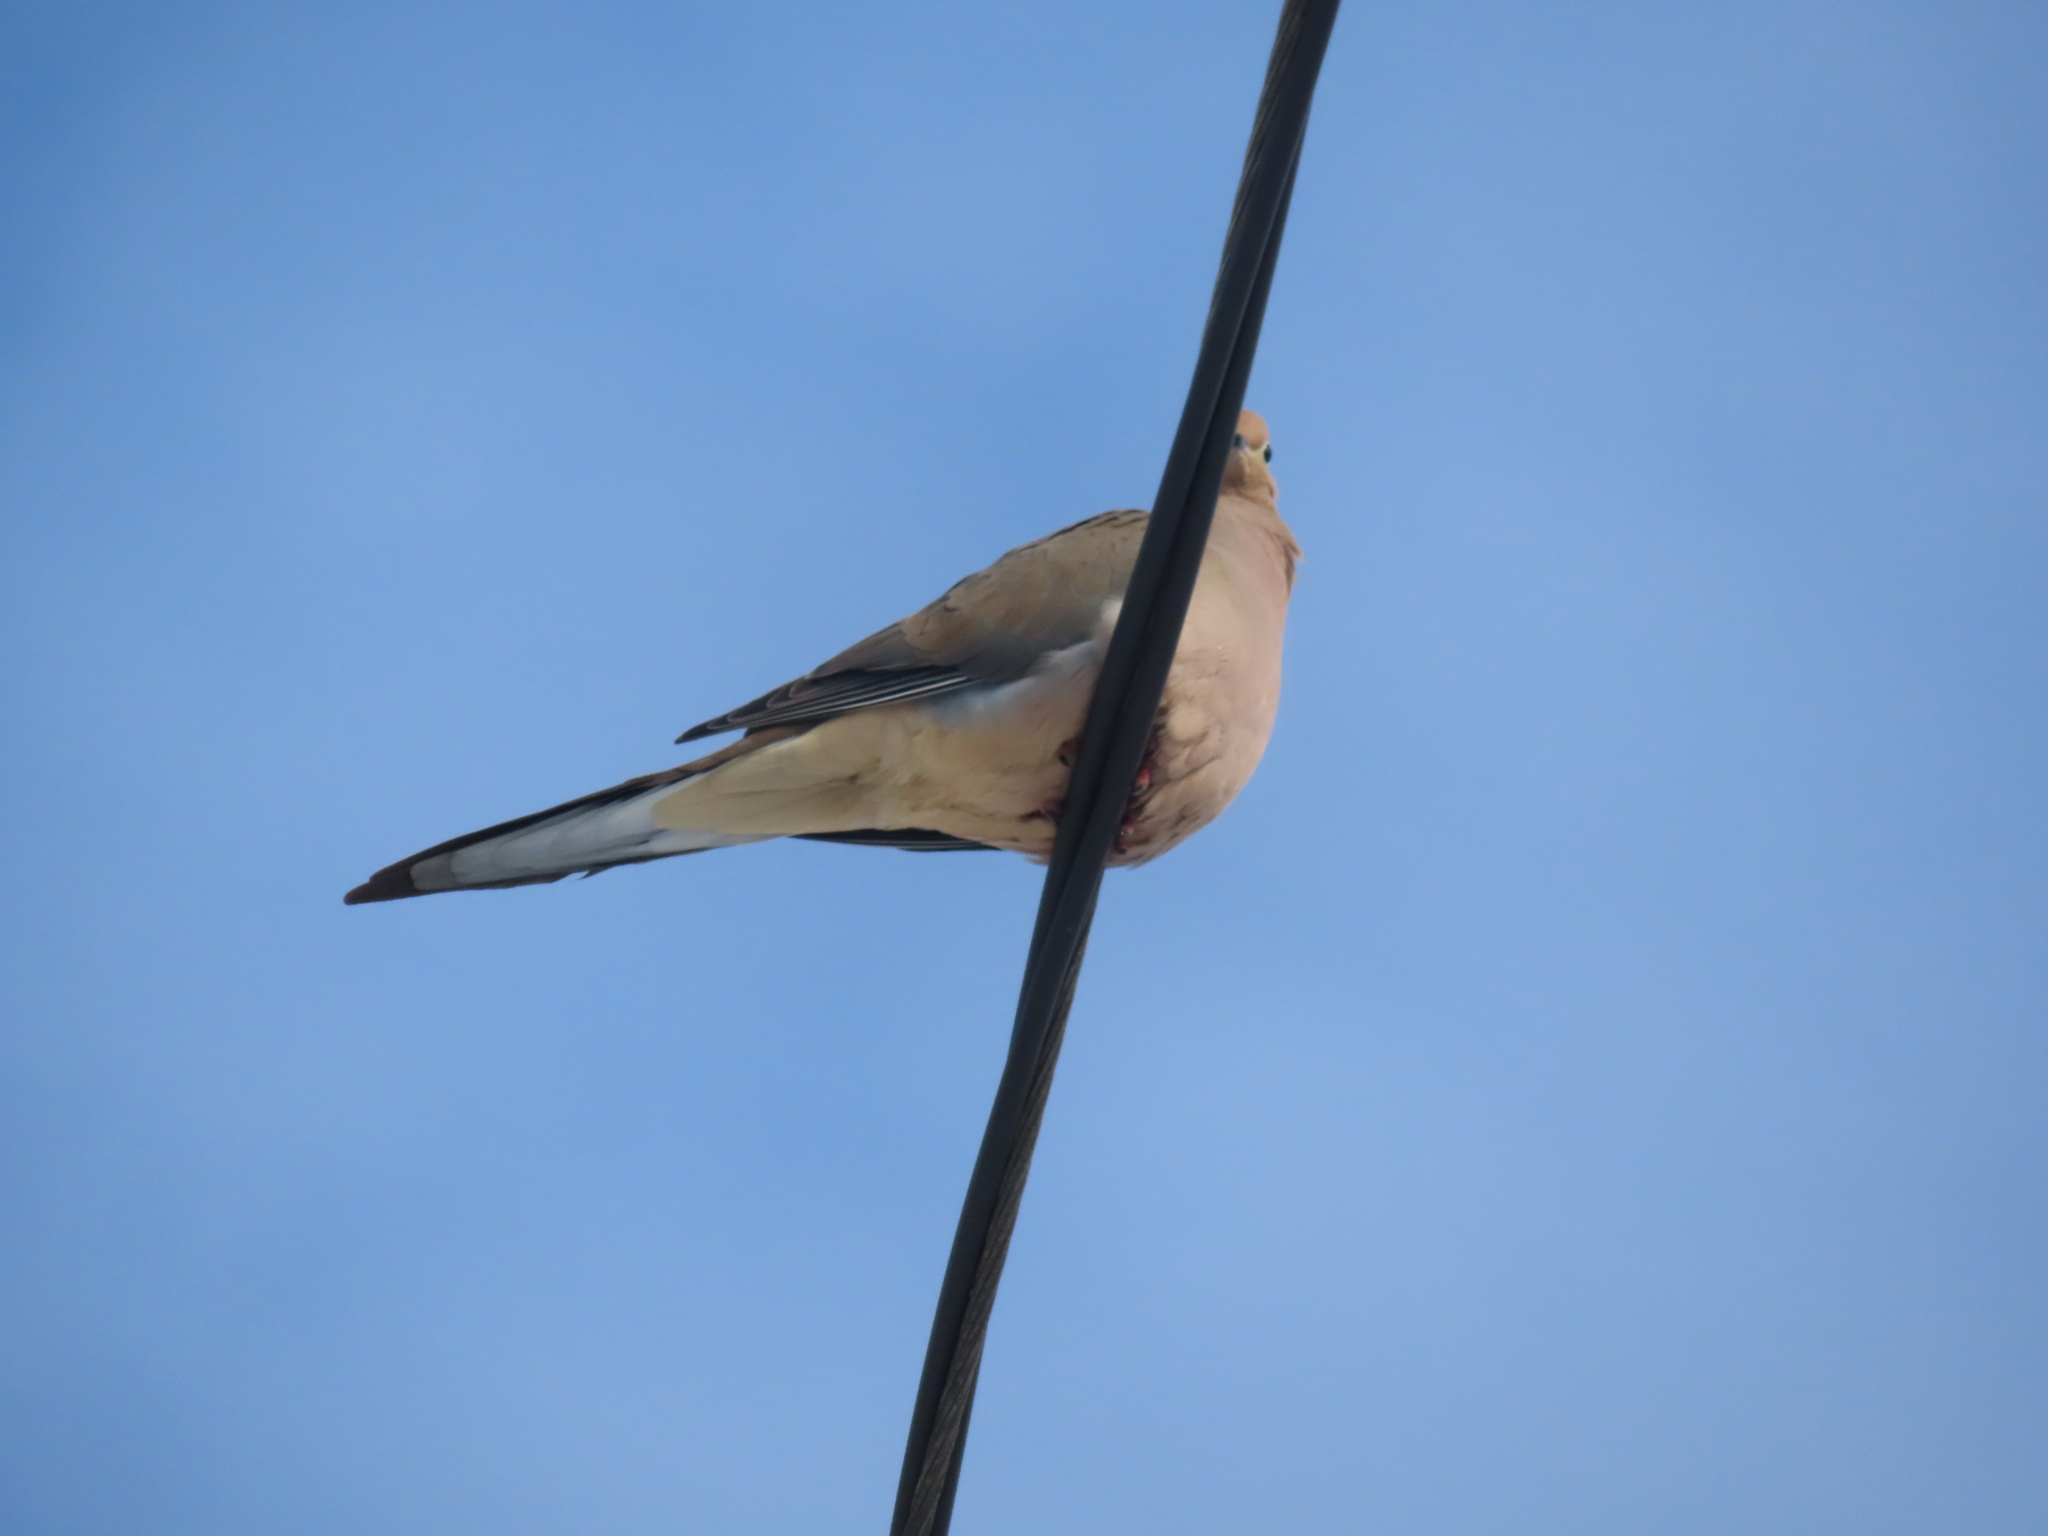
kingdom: Animalia
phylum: Chordata
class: Aves
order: Columbiformes
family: Columbidae
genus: Zenaida
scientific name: Zenaida macroura
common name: Mourning dove
